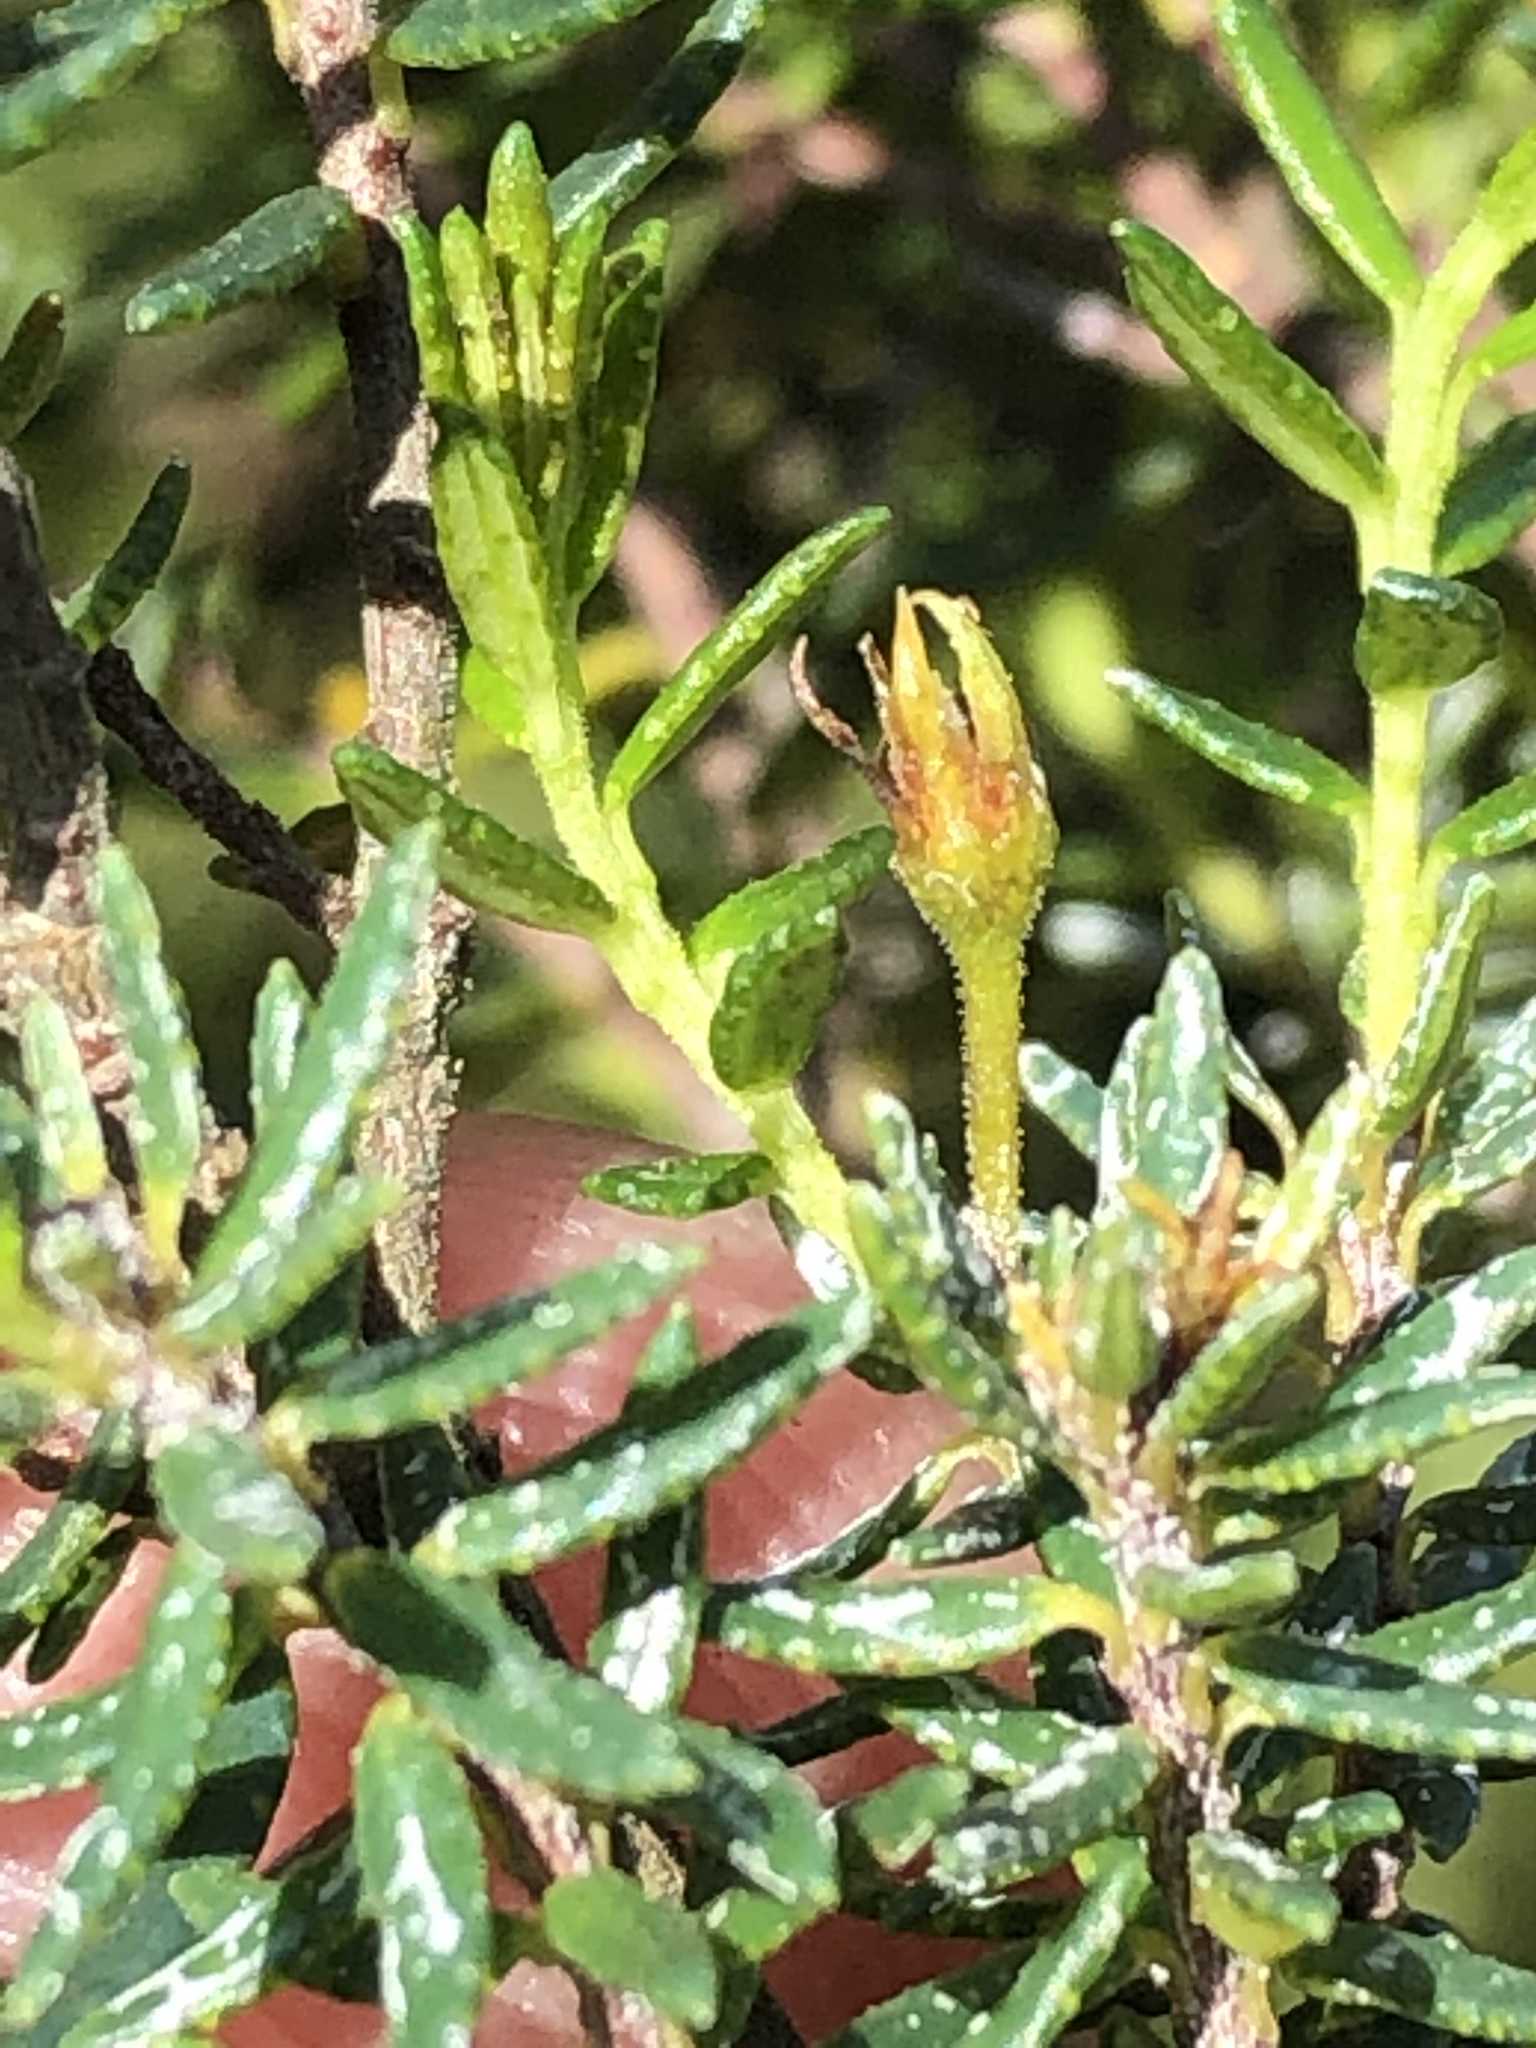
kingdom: Plantae
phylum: Tracheophyta
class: Magnoliopsida
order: Sapindales
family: Rutaceae
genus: Agathosma
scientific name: Agathosma clavisepala
